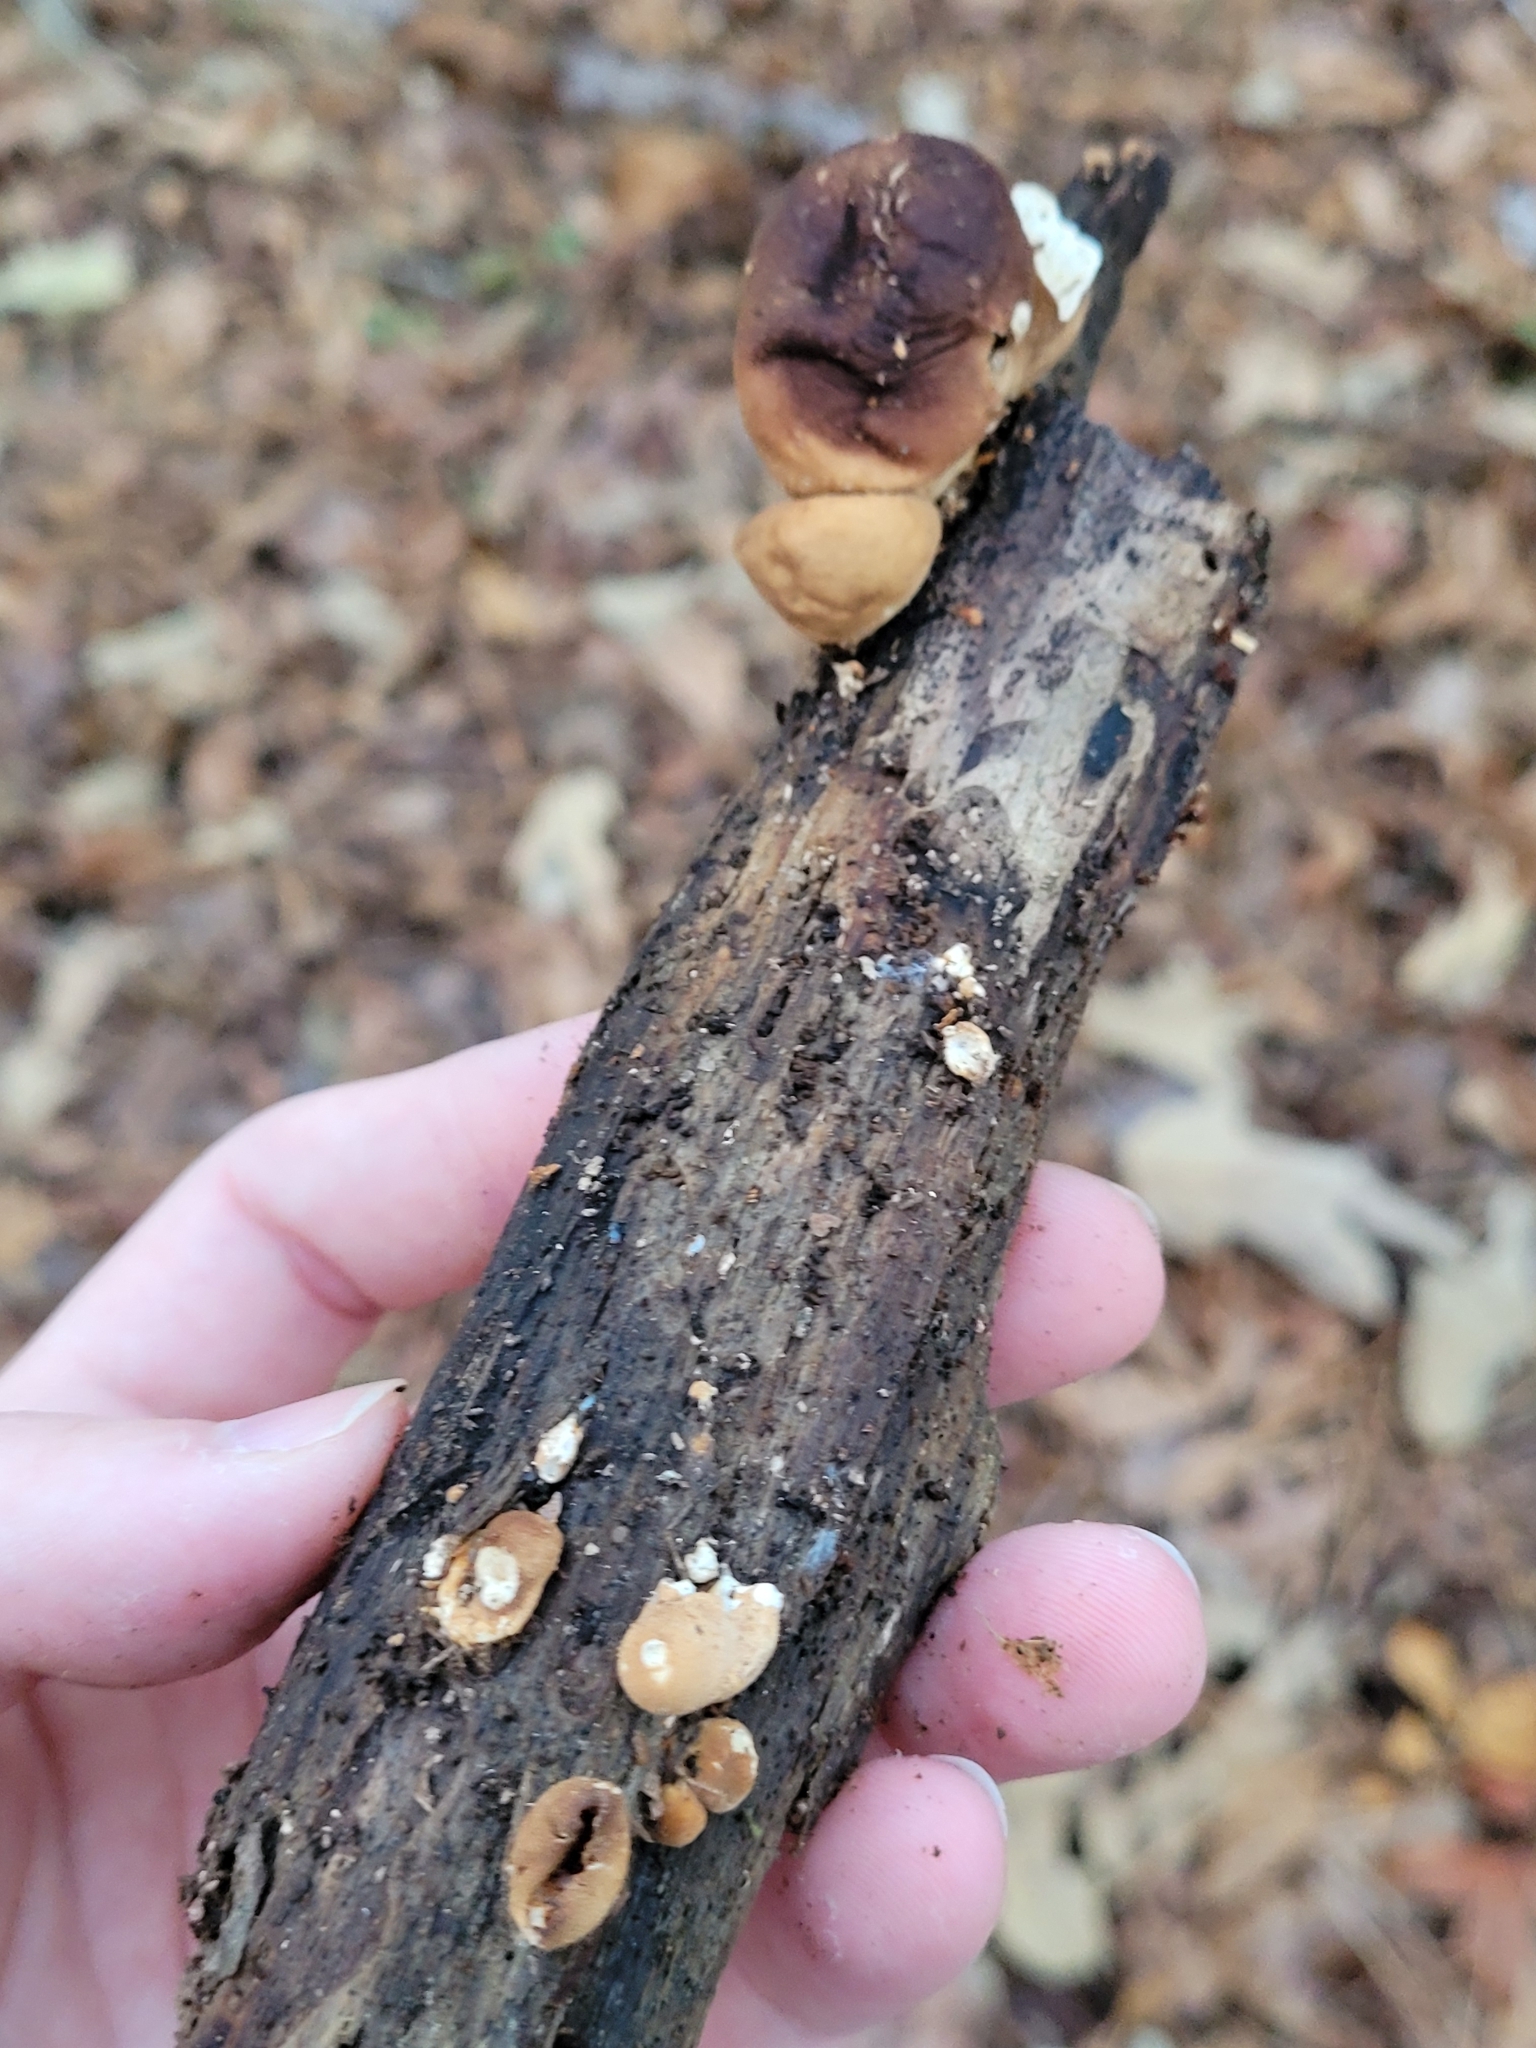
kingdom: Fungi
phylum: Basidiomycota
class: Agaricomycetes
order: Agaricales
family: Lycoperdaceae
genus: Apioperdon
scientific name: Apioperdon pyriforme
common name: Pear-shaped puffball
